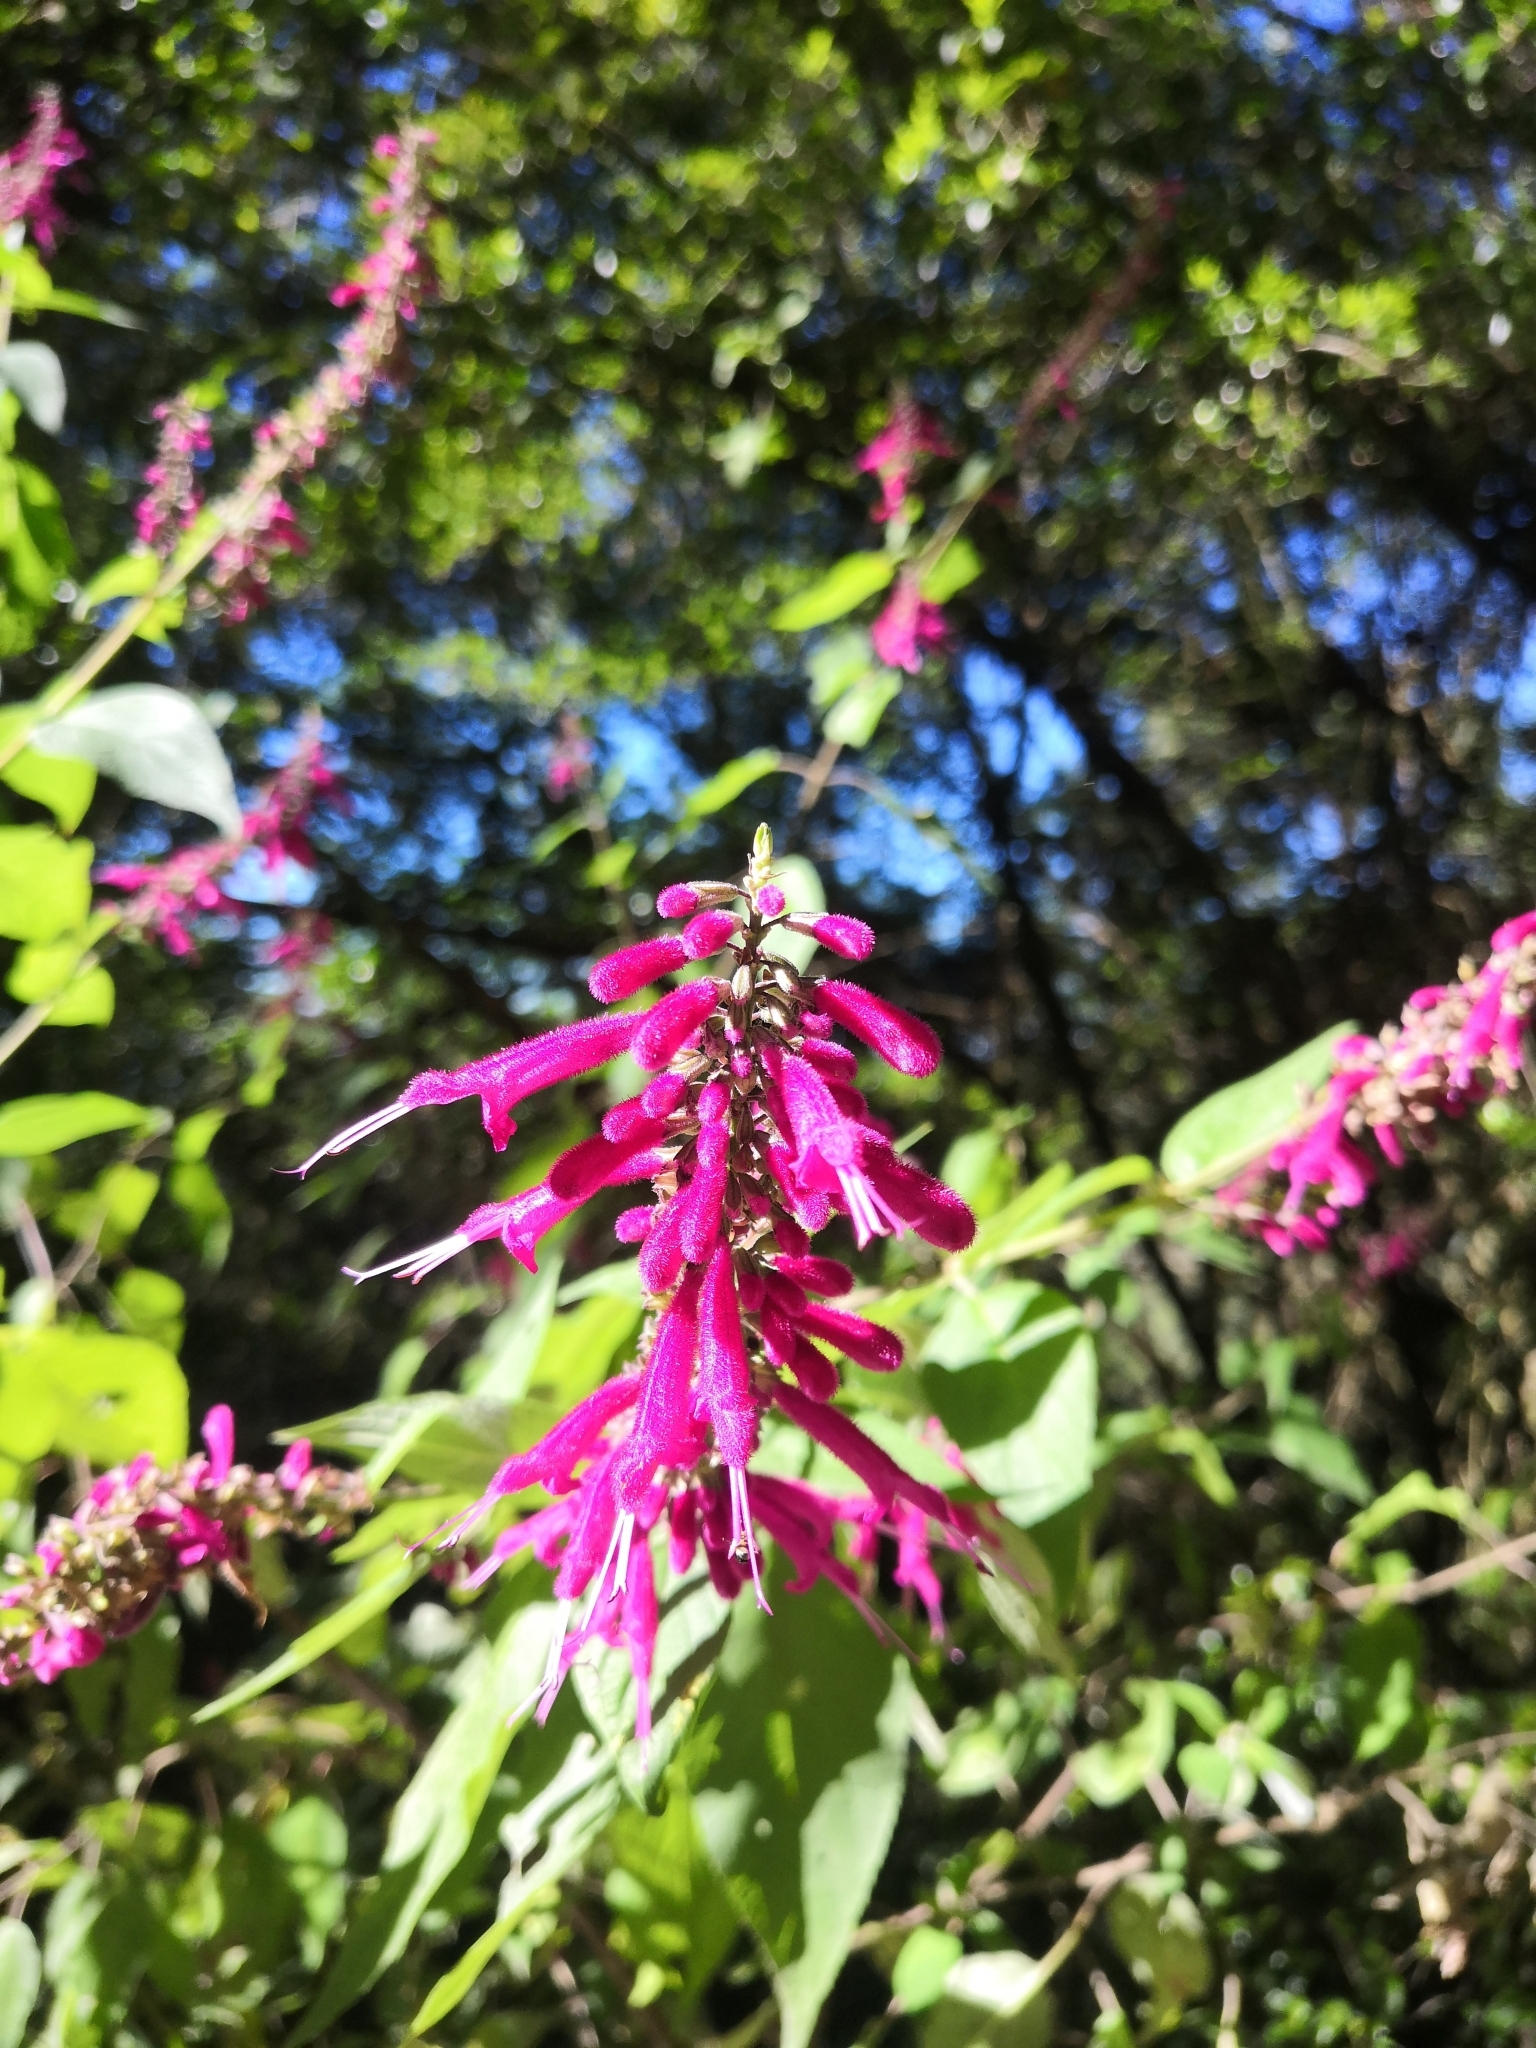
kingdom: Plantae
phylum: Tracheophyta
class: Magnoliopsida
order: Lamiales
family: Lamiaceae
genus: Salvia
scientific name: Salvia iodantha
